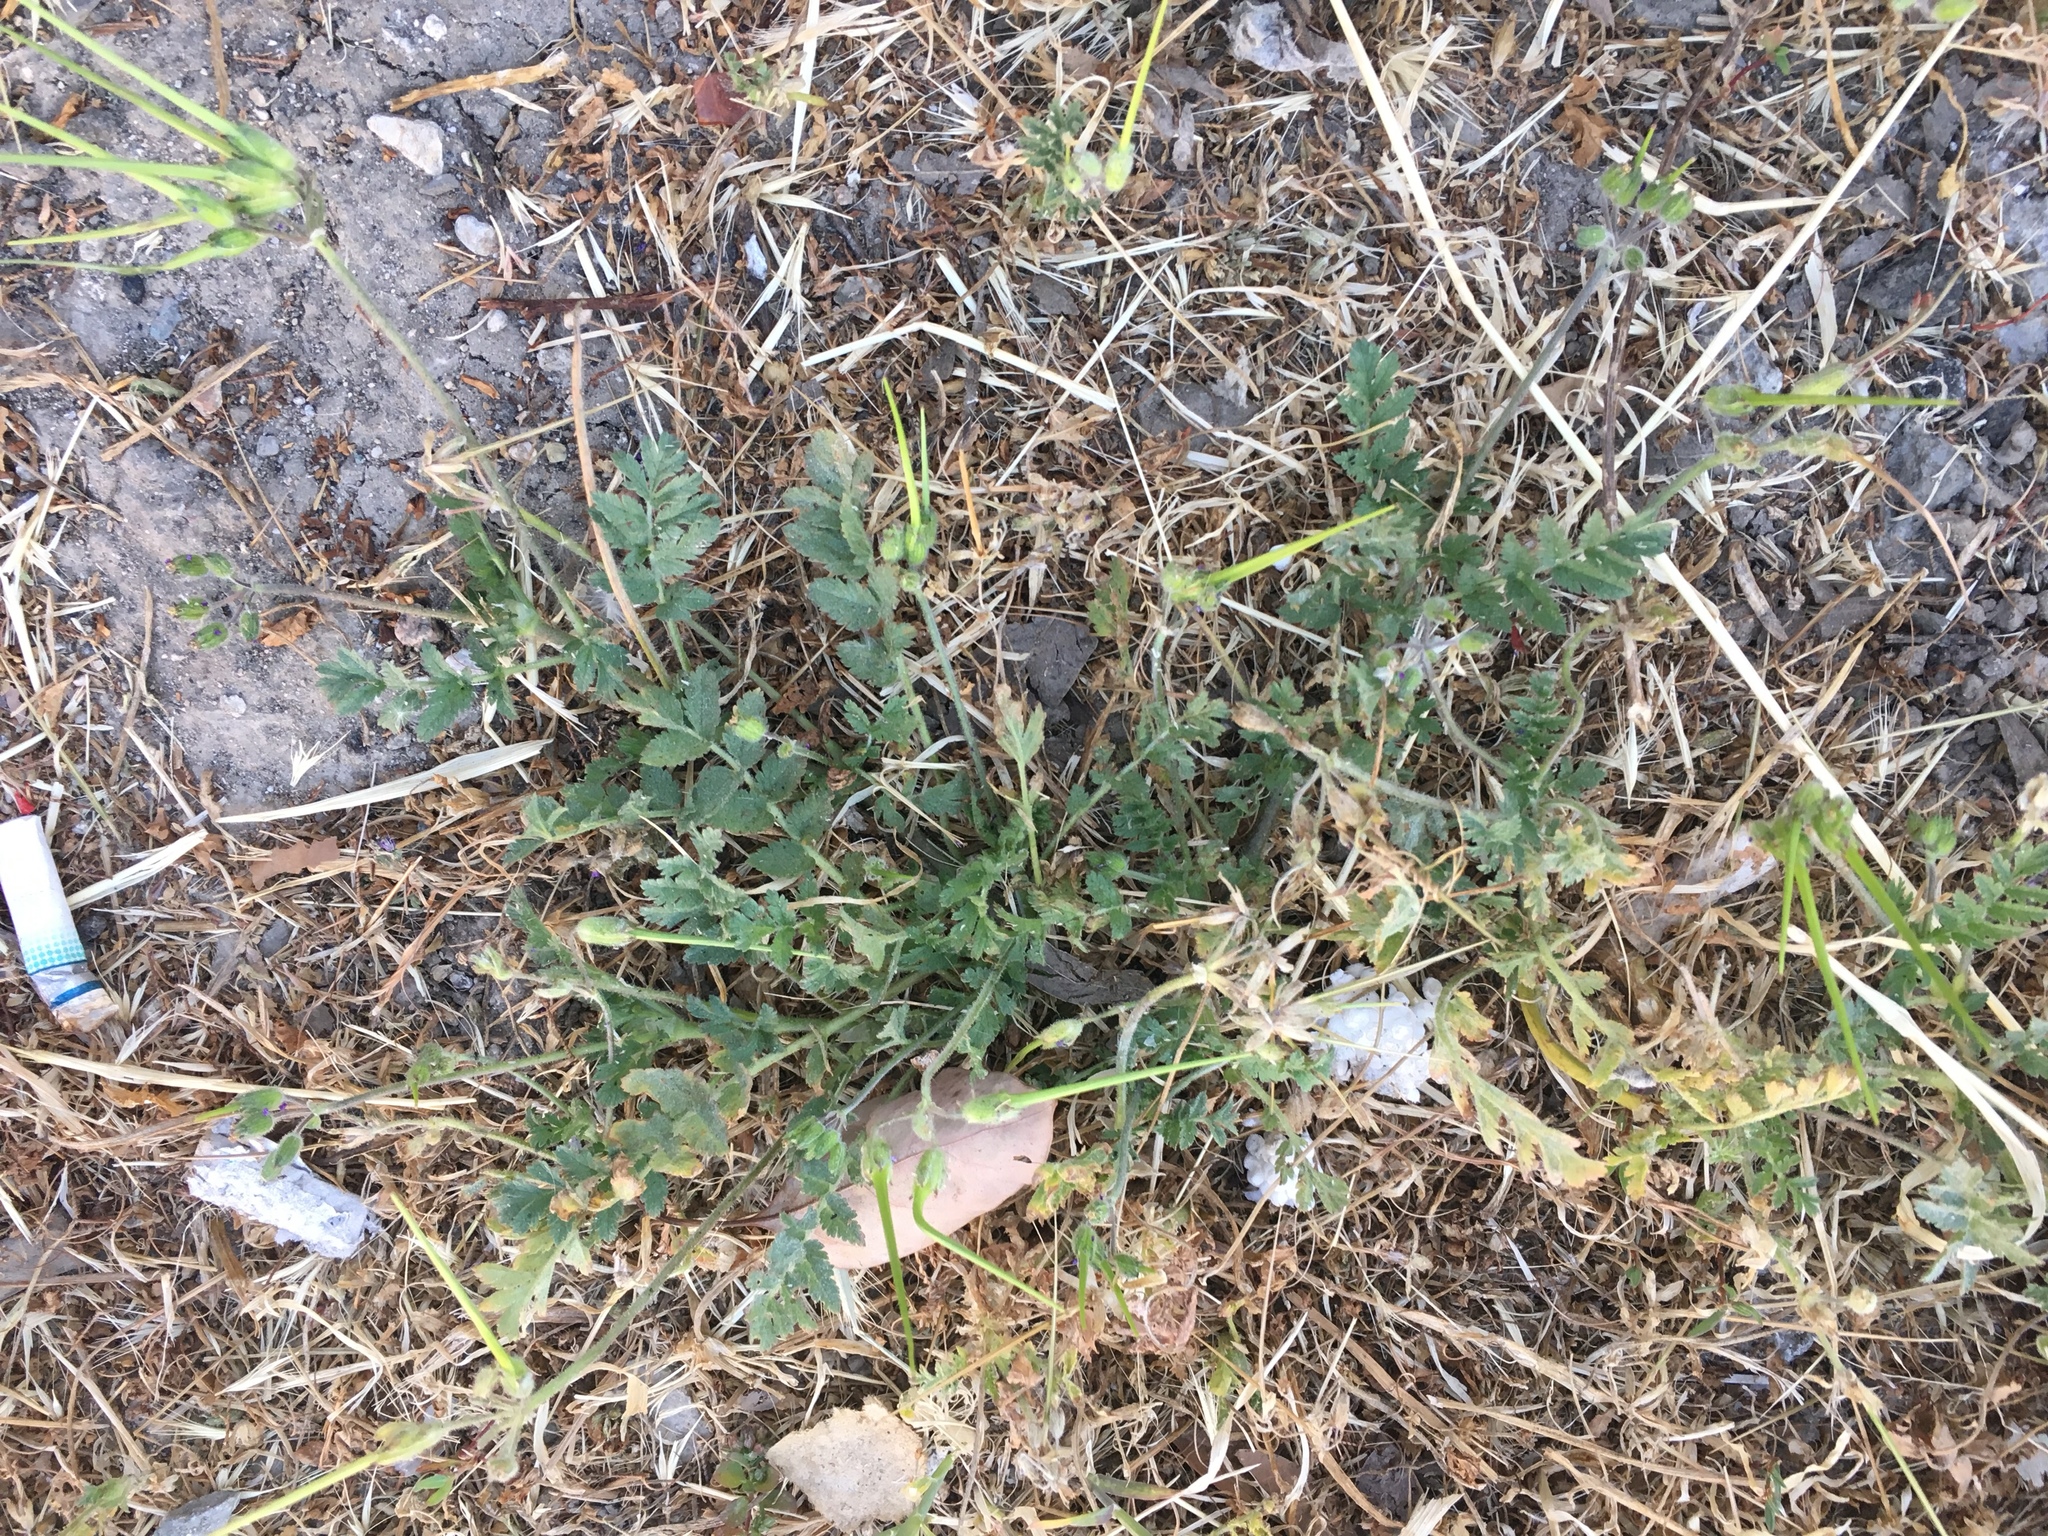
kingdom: Plantae
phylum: Tracheophyta
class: Magnoliopsida
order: Geraniales
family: Geraniaceae
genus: Erodium
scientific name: Erodium moschatum
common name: Musk stork's-bill
